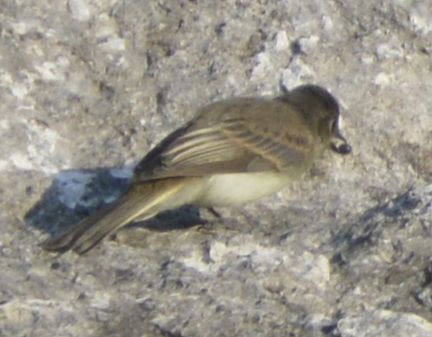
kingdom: Animalia
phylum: Chordata
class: Aves
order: Passeriformes
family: Tyrannidae
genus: Sayornis
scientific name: Sayornis phoebe
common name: Eastern phoebe
